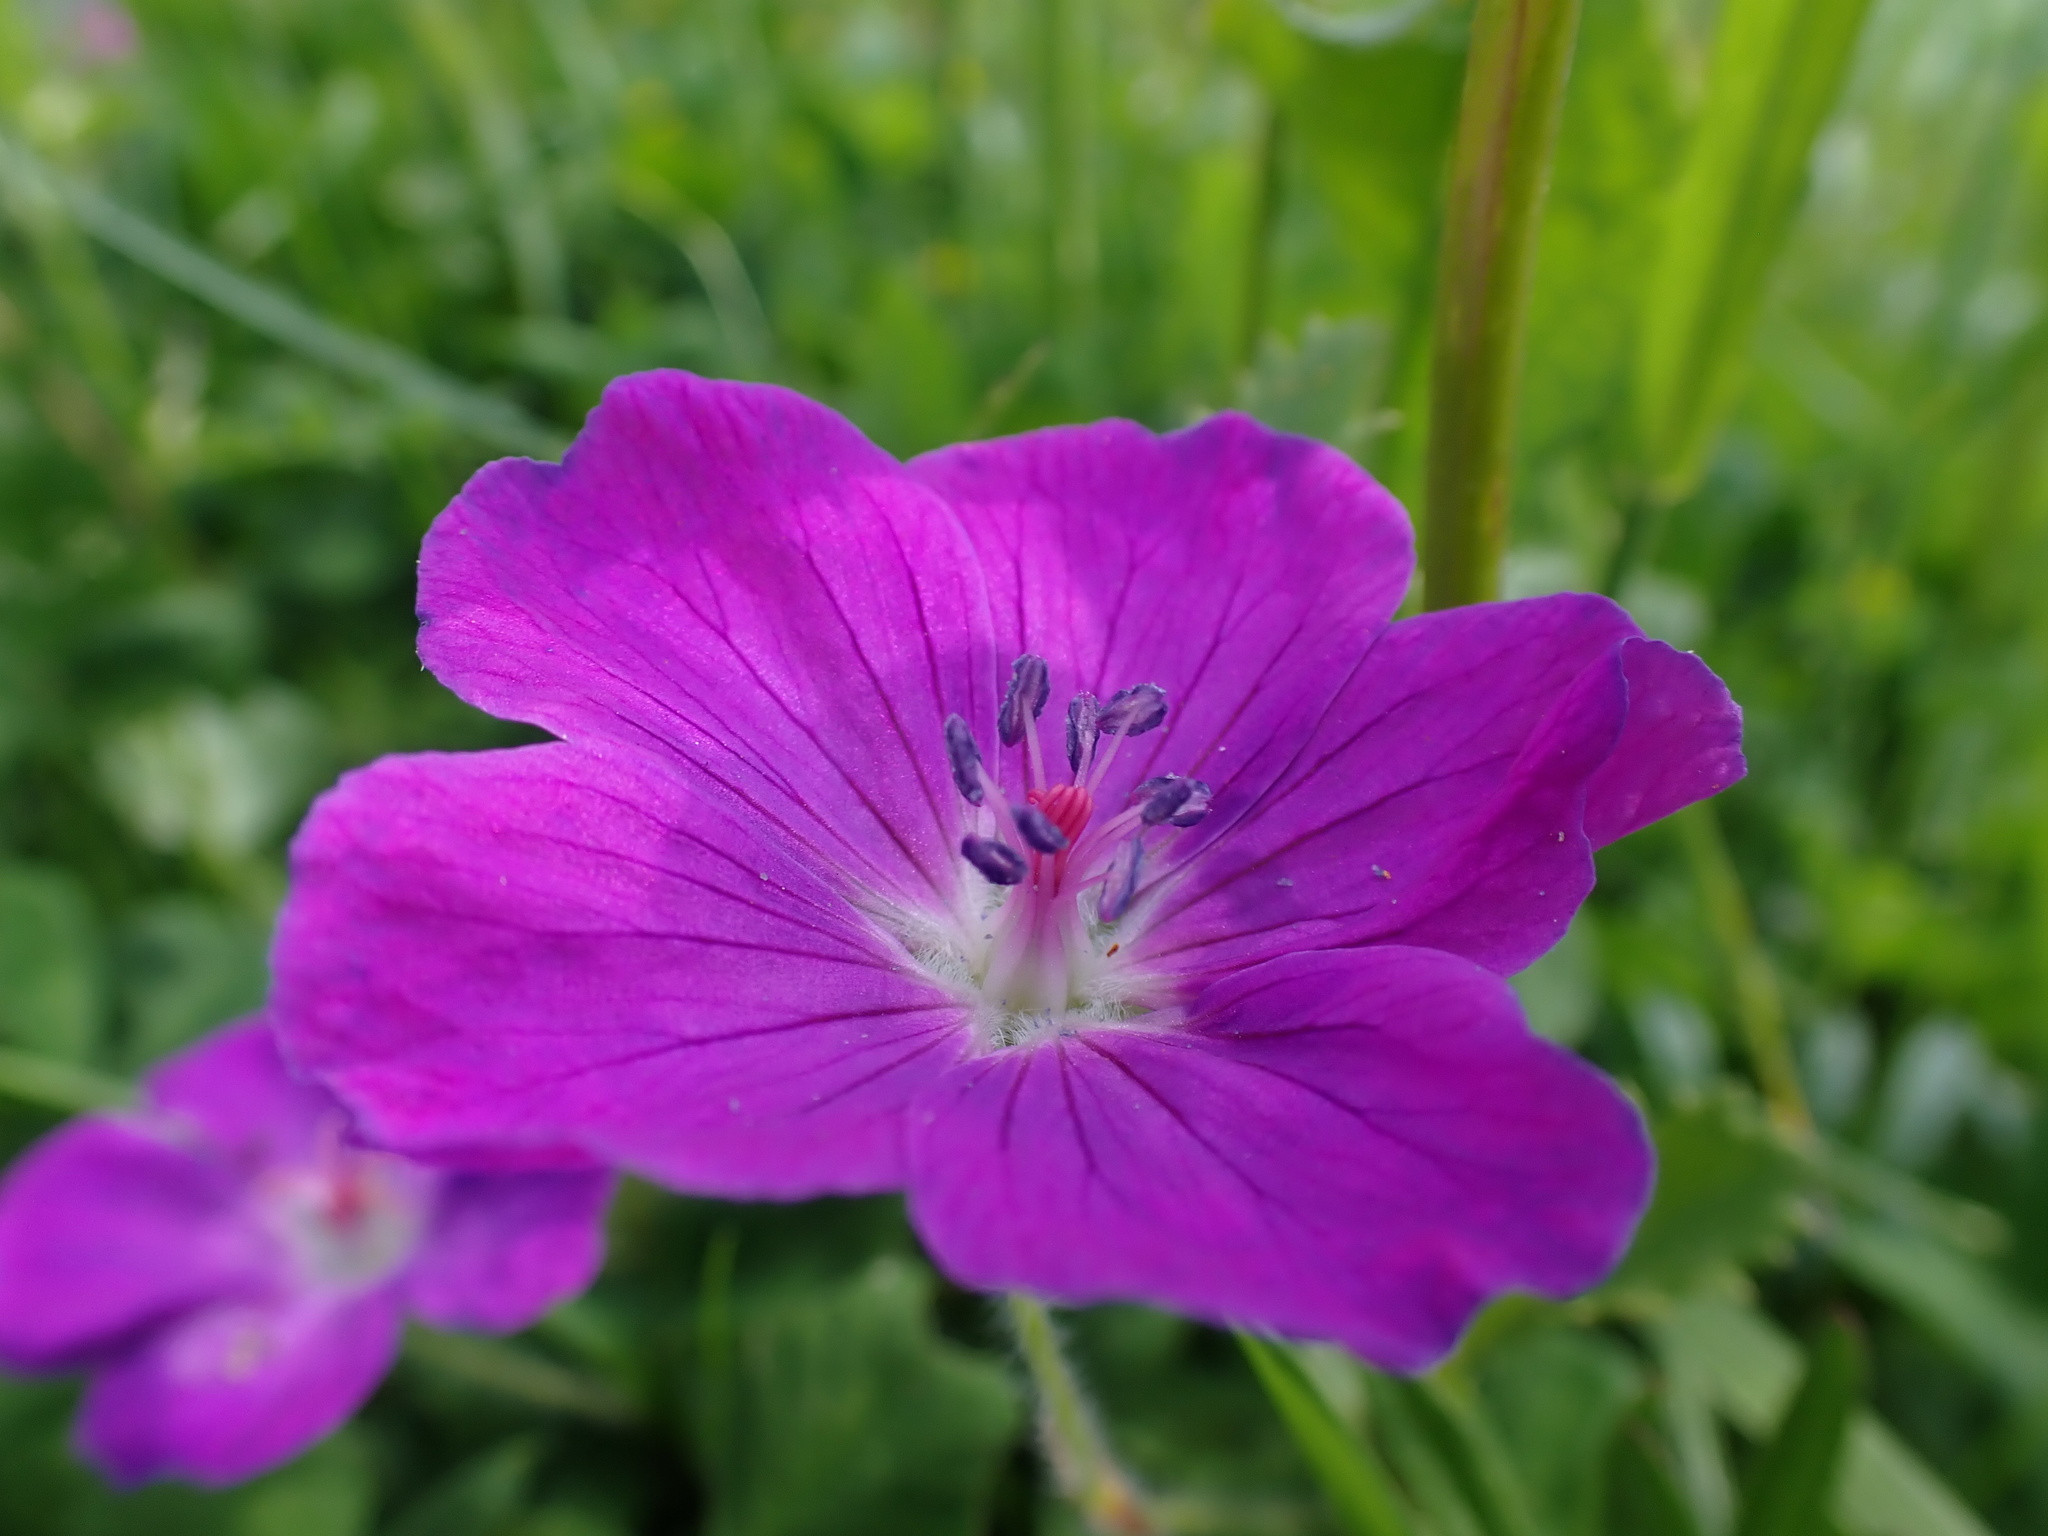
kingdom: Plantae
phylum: Tracheophyta
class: Magnoliopsida
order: Geraniales
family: Geraniaceae
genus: Geranium
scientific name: Geranium sanguineum
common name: Bloody crane's-bill
